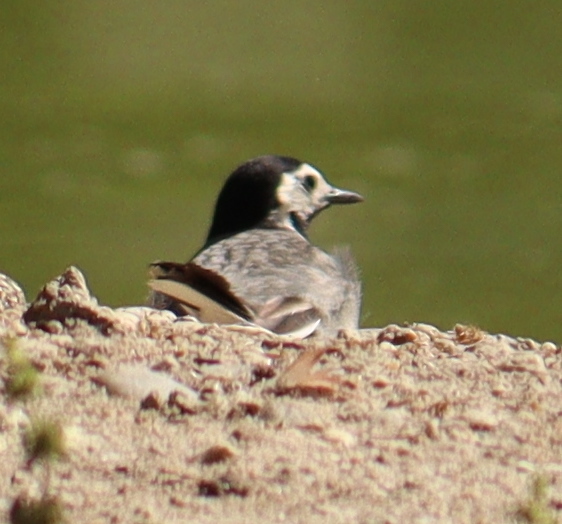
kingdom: Animalia
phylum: Chordata
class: Aves
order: Passeriformes
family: Motacillidae
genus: Motacilla
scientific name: Motacilla alba
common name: White wagtail
